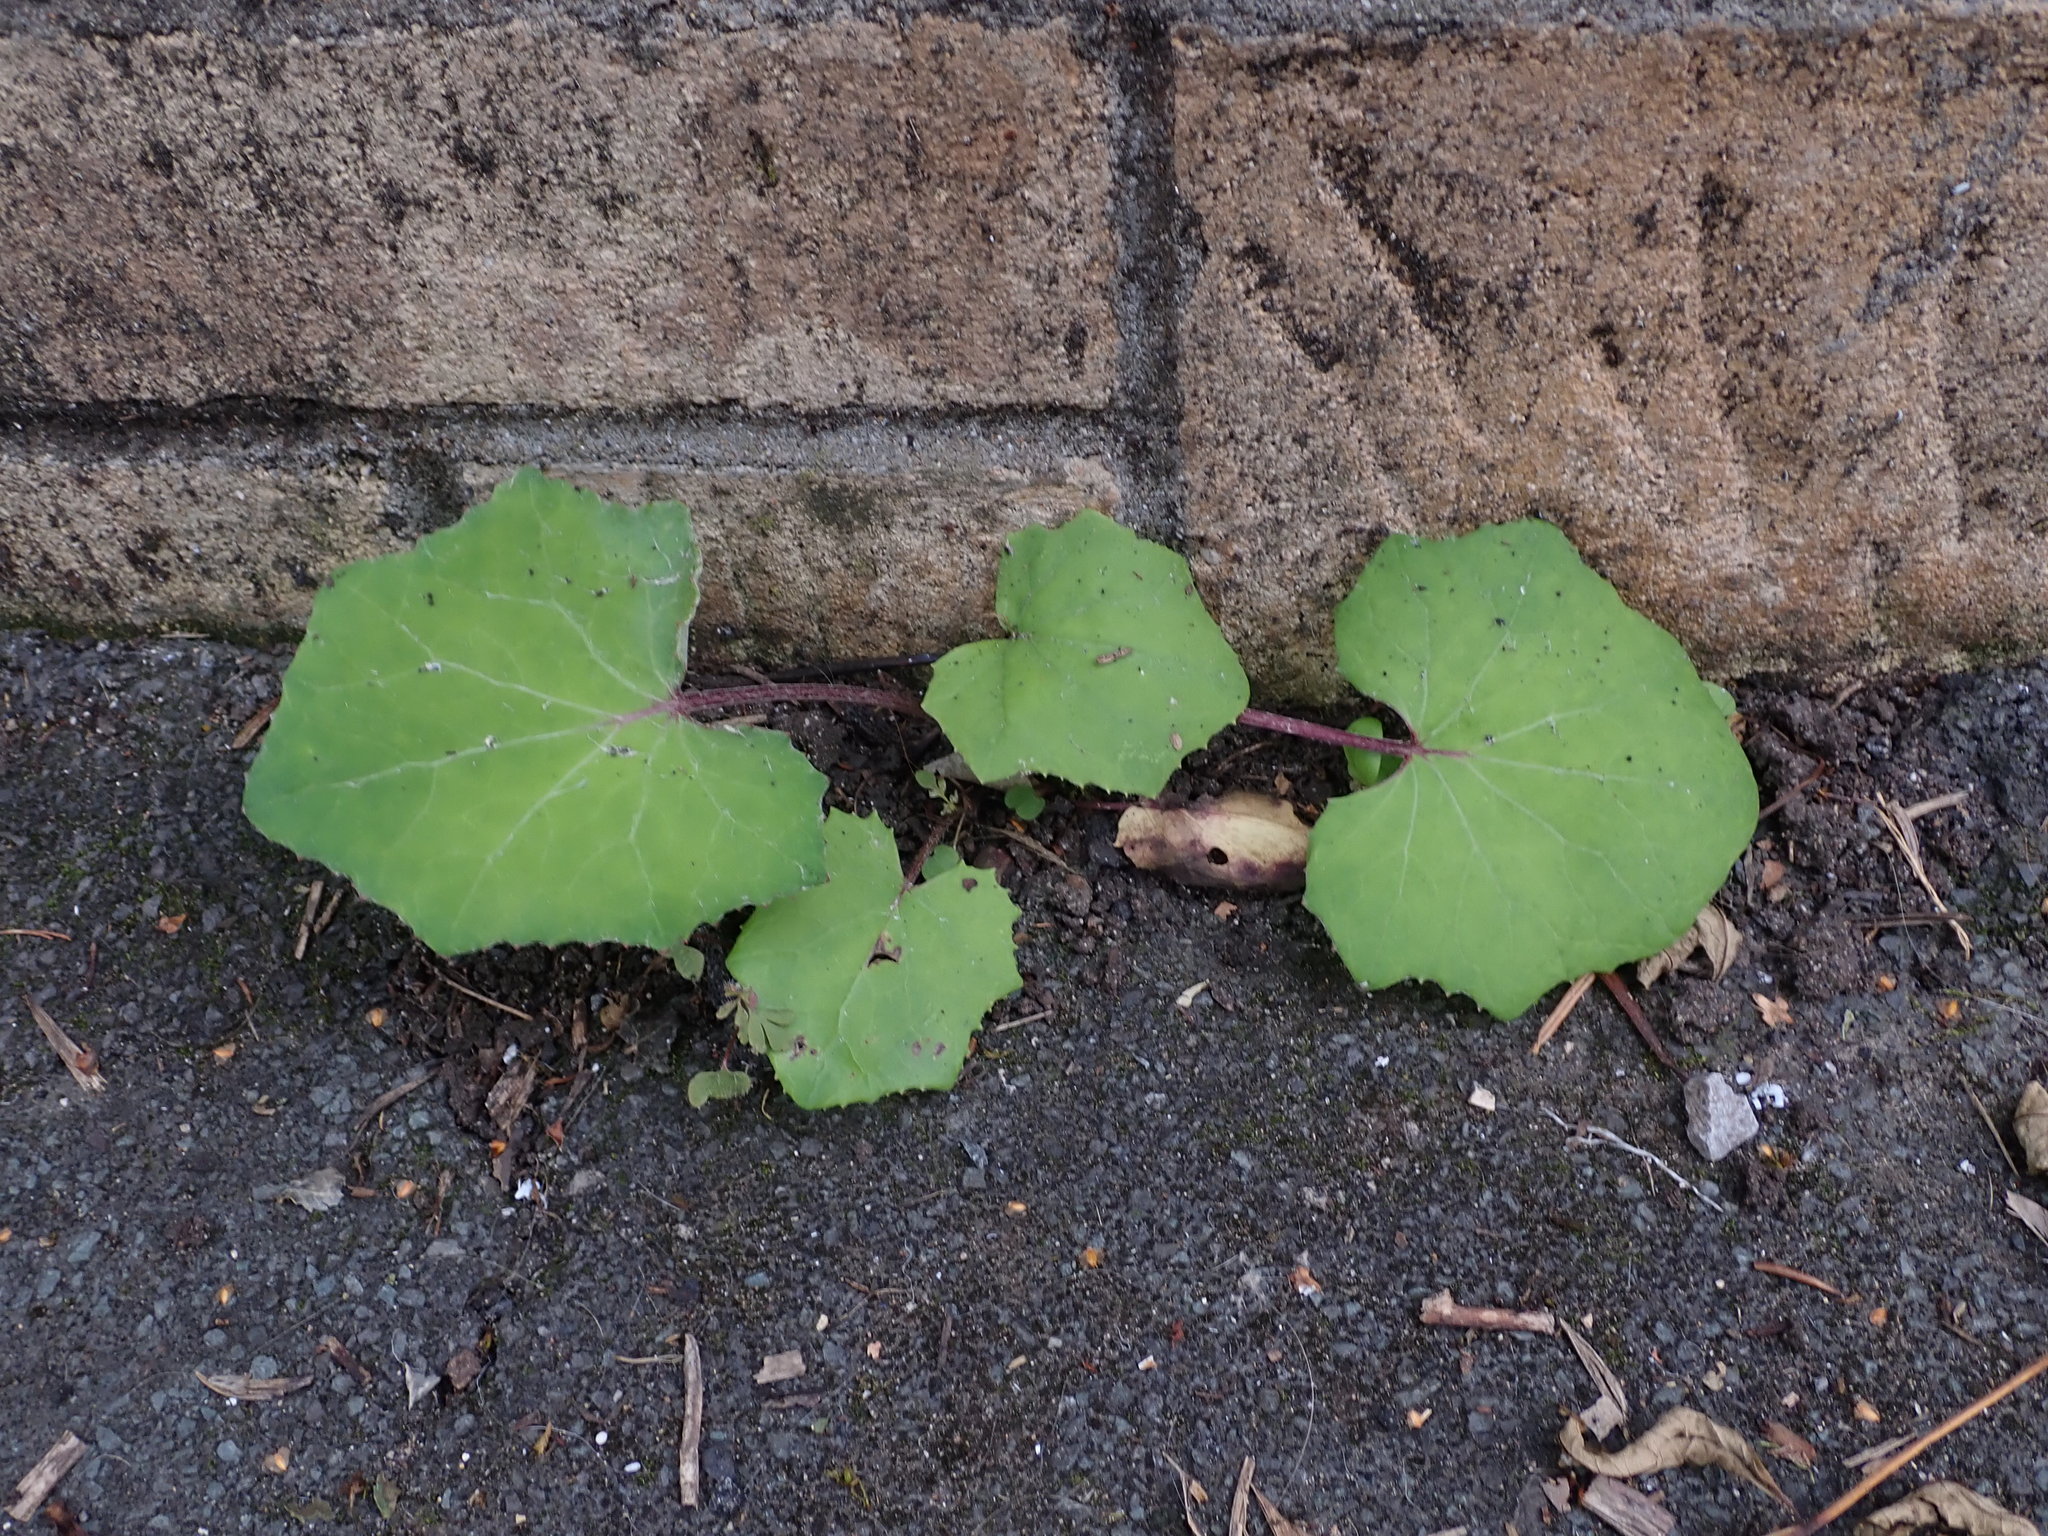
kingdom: Plantae
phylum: Tracheophyta
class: Magnoliopsida
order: Asterales
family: Asteraceae
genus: Tussilago
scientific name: Tussilago farfara
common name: Coltsfoot
